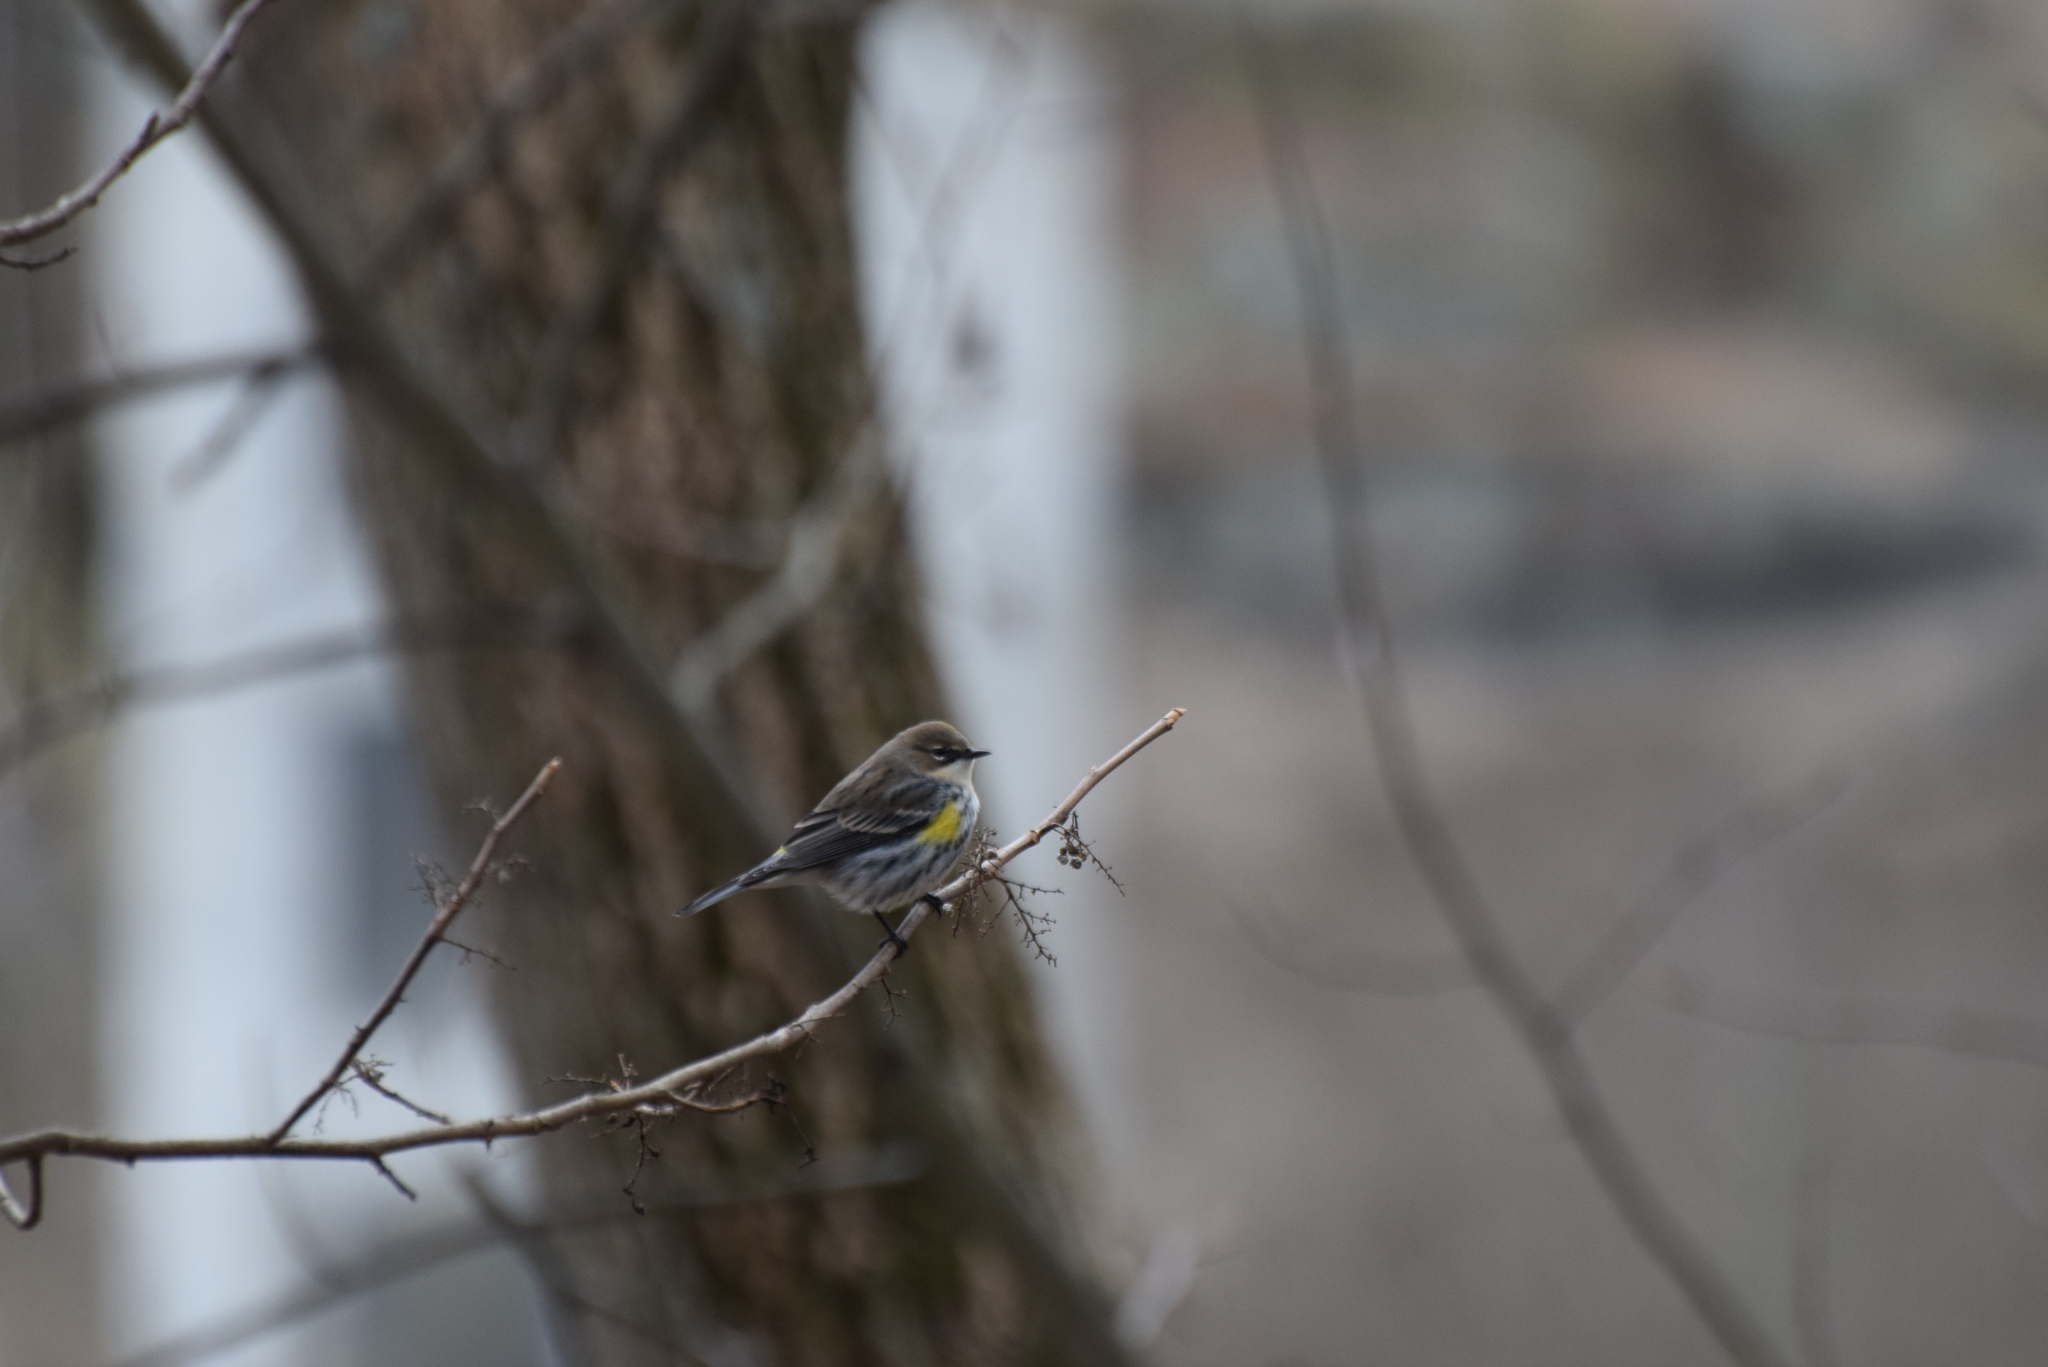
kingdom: Animalia
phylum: Chordata
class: Aves
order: Passeriformes
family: Parulidae
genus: Setophaga
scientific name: Setophaga coronata
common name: Myrtle warbler
